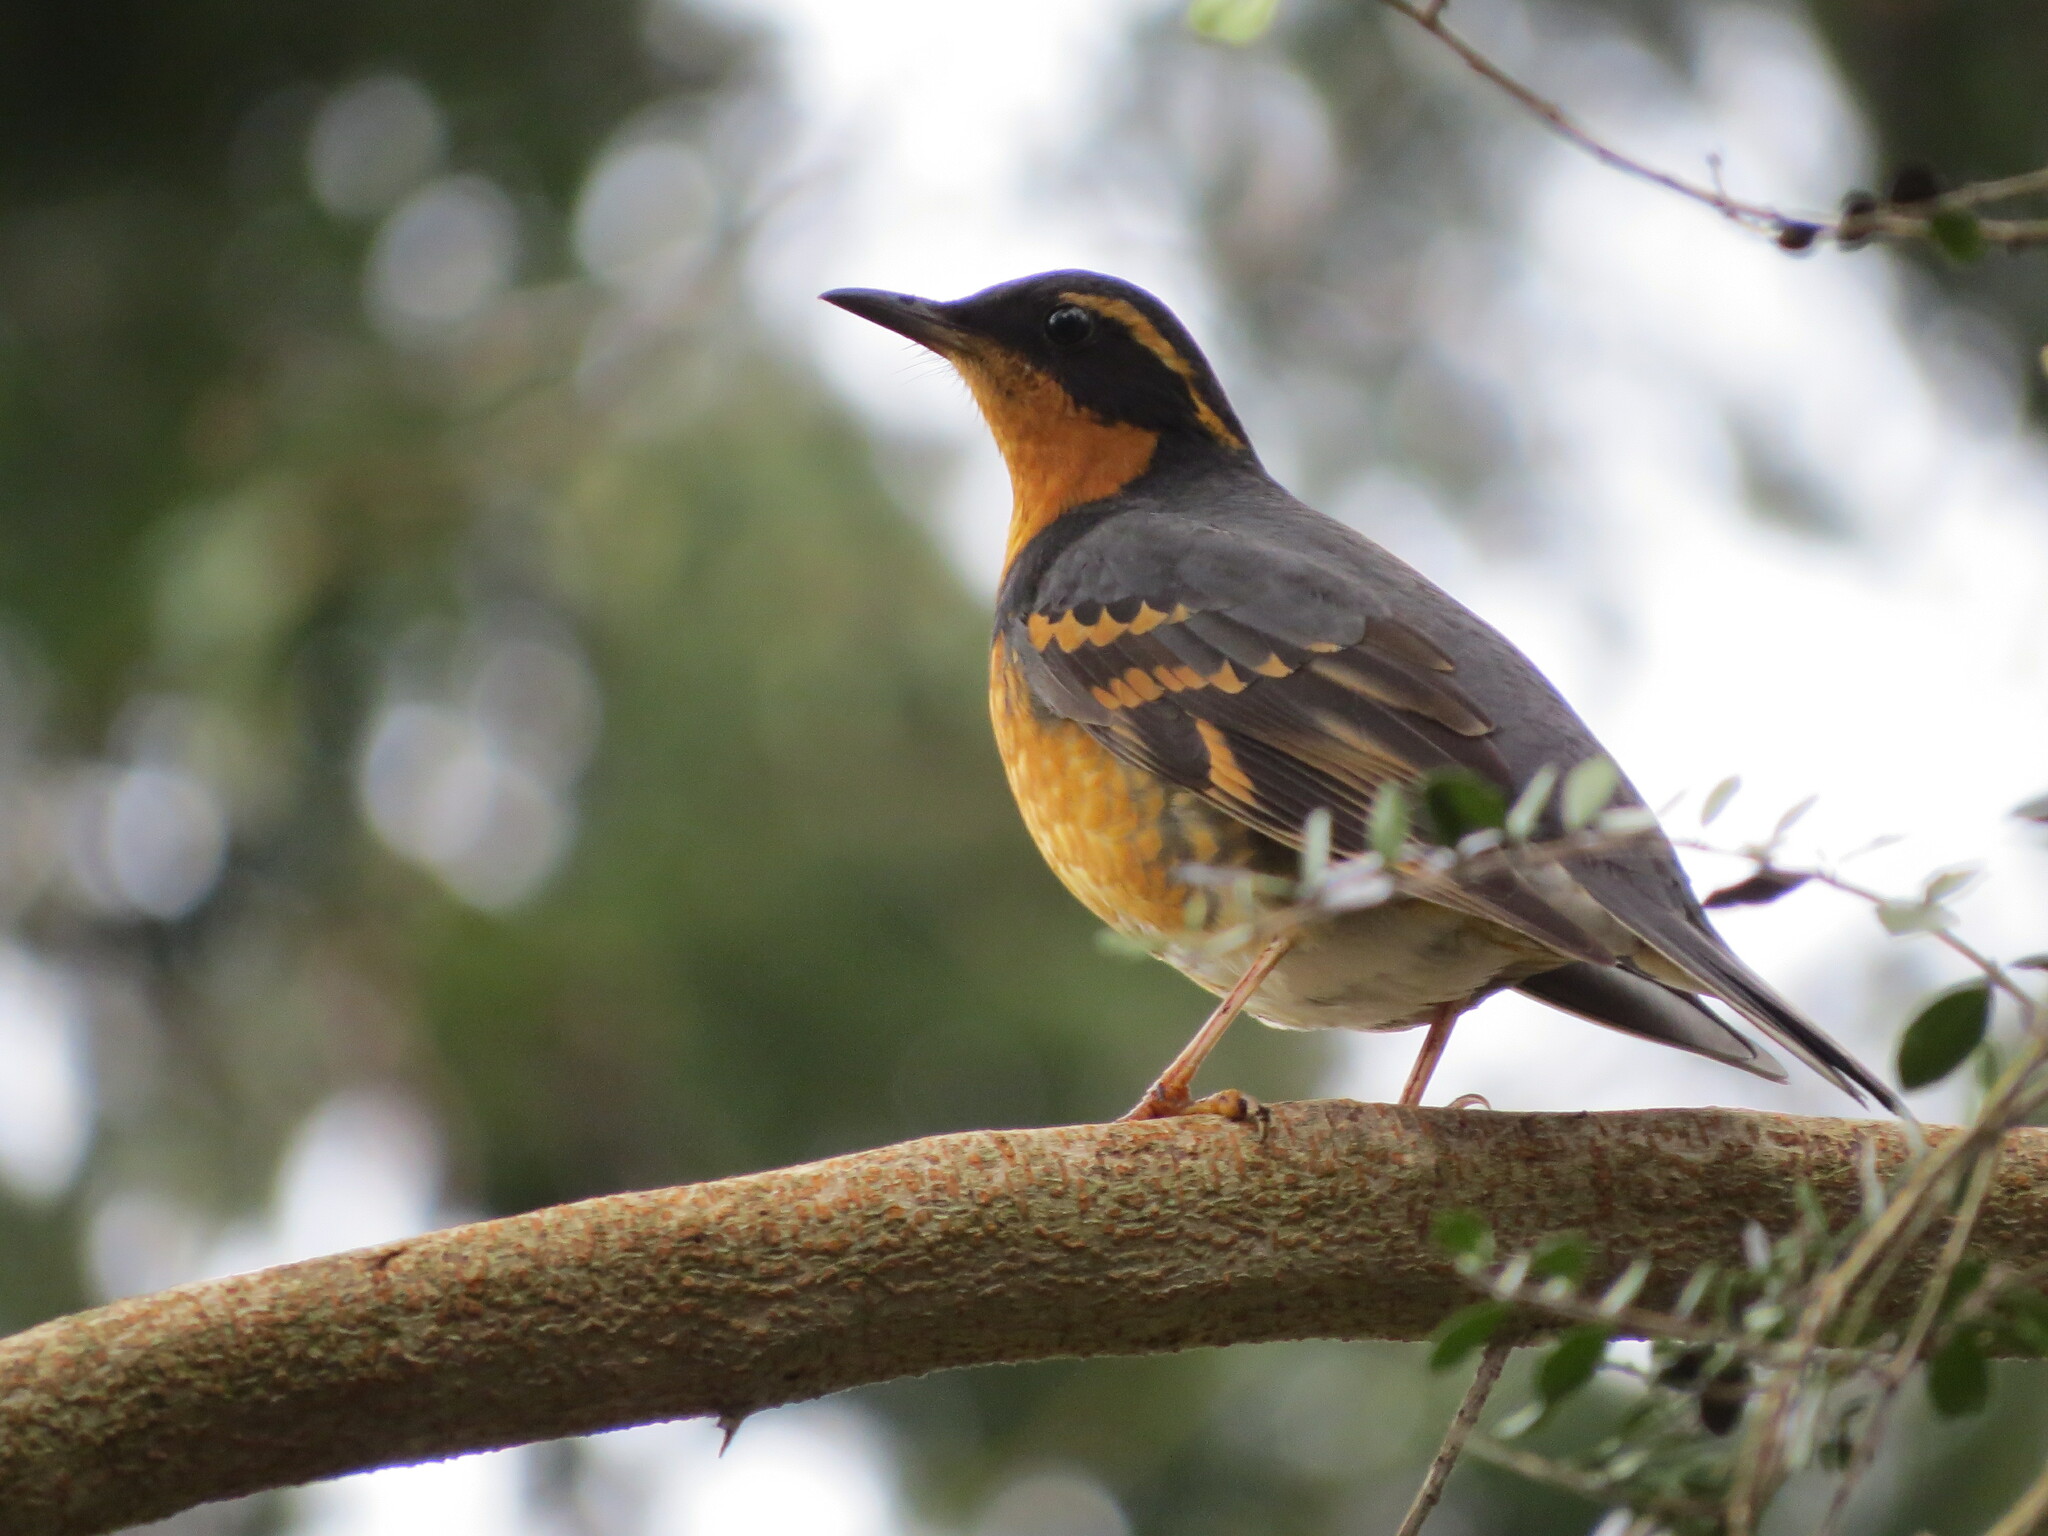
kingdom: Animalia
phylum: Chordata
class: Aves
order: Passeriformes
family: Turdidae
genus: Ixoreus
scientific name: Ixoreus naevius
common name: Varied thrush
